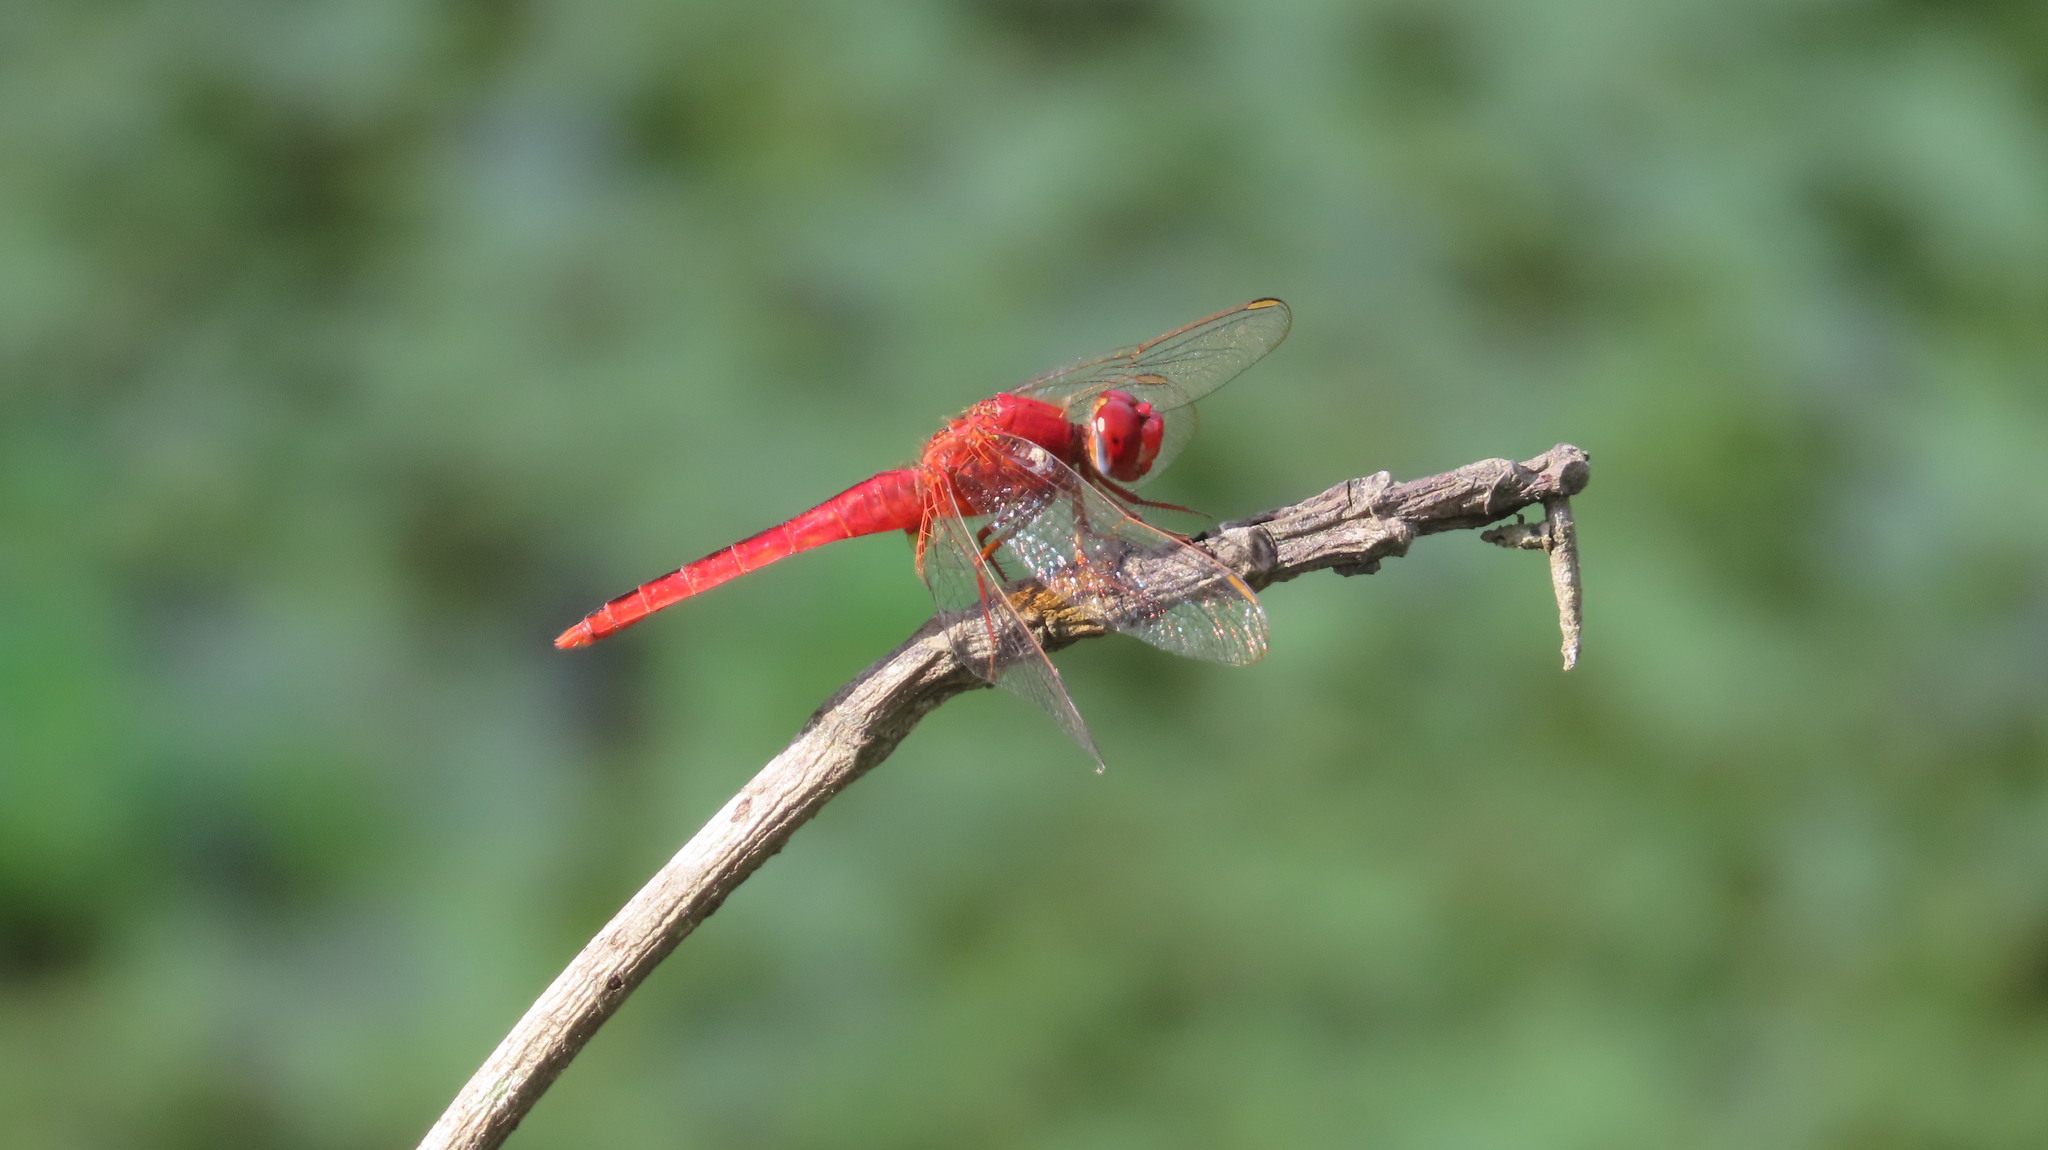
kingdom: Animalia
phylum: Arthropoda
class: Insecta
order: Odonata
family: Libellulidae
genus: Crocothemis
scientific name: Crocothemis servilia
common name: Scarlet skimmer
